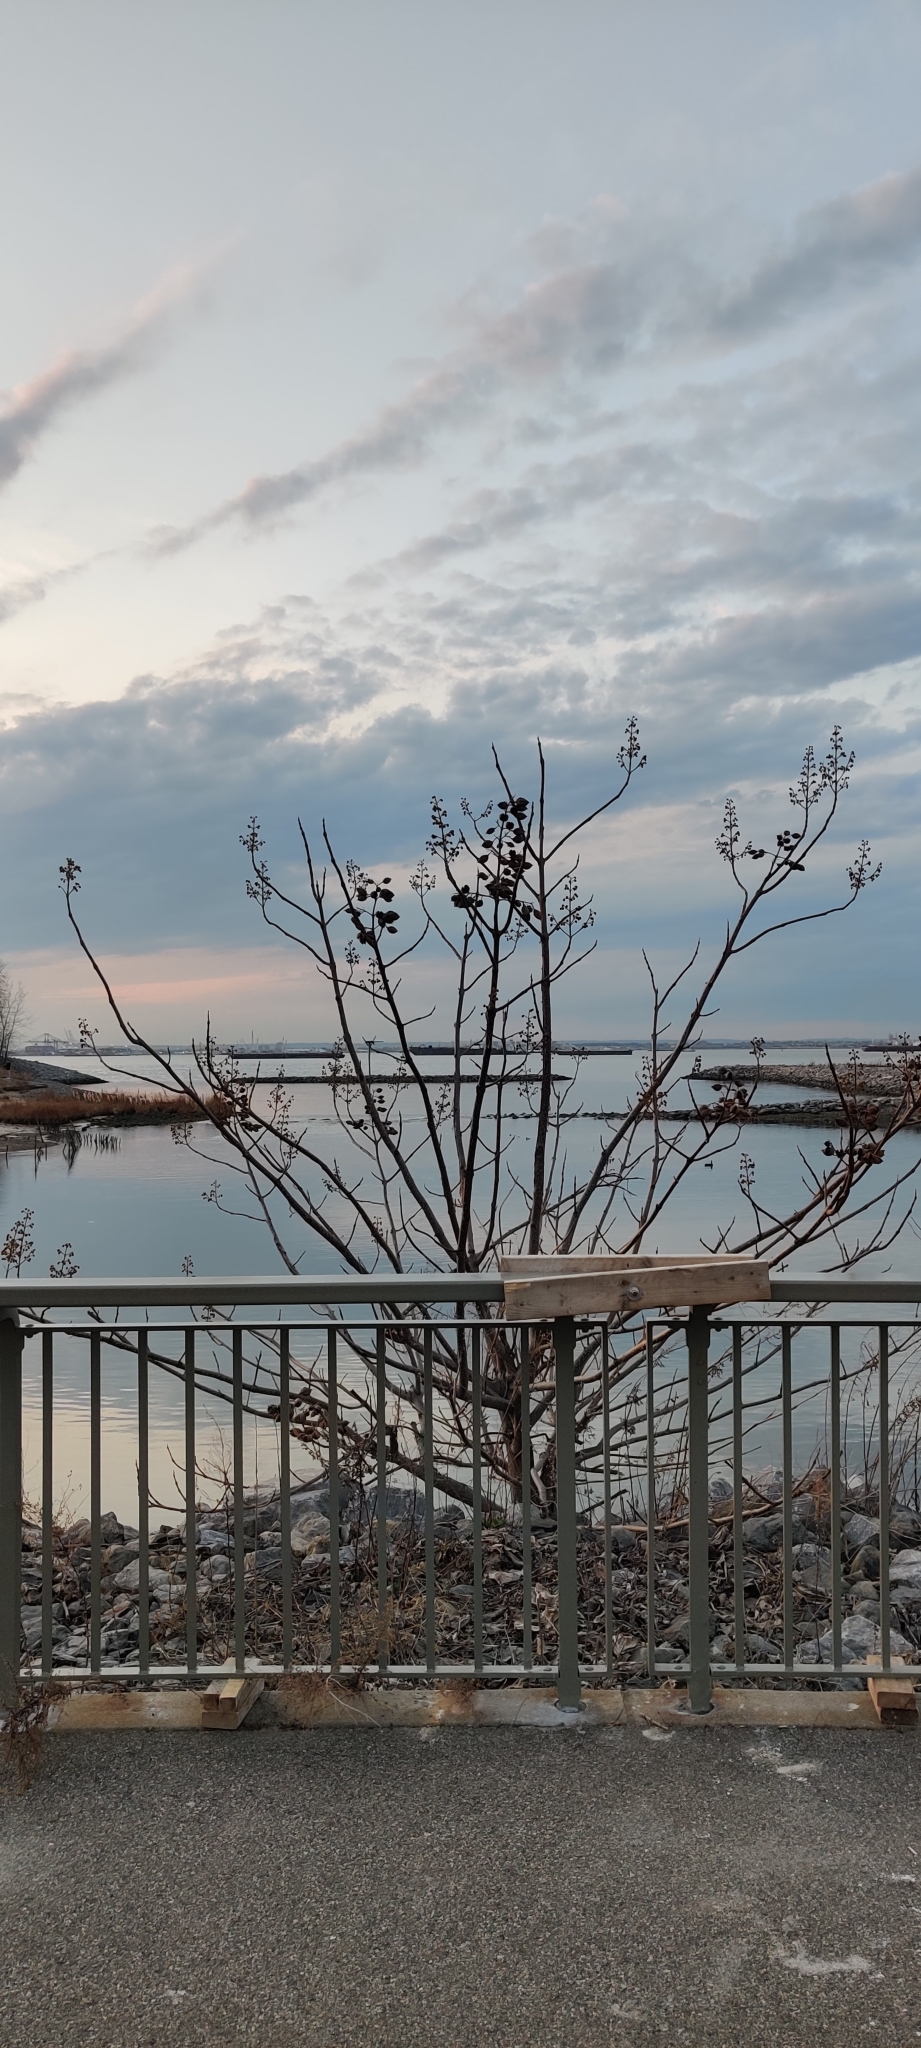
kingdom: Plantae
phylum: Tracheophyta
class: Magnoliopsida
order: Lamiales
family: Paulowniaceae
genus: Paulownia
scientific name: Paulownia tomentosa
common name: Foxglove-tree
